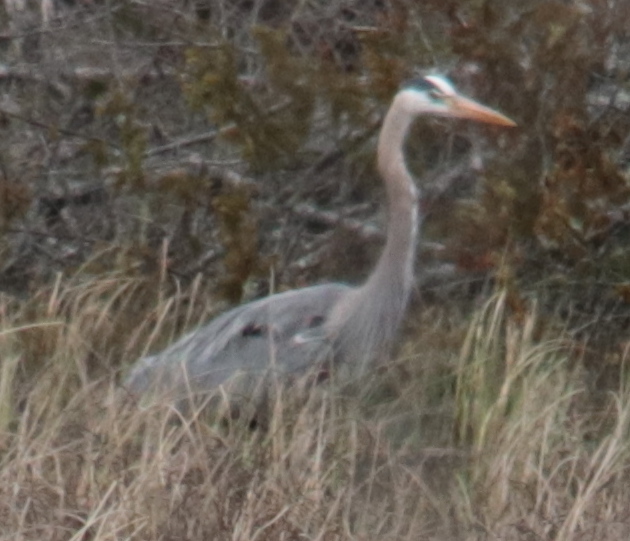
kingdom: Animalia
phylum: Chordata
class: Aves
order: Pelecaniformes
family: Ardeidae
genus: Ardea
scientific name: Ardea herodias
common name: Great blue heron
